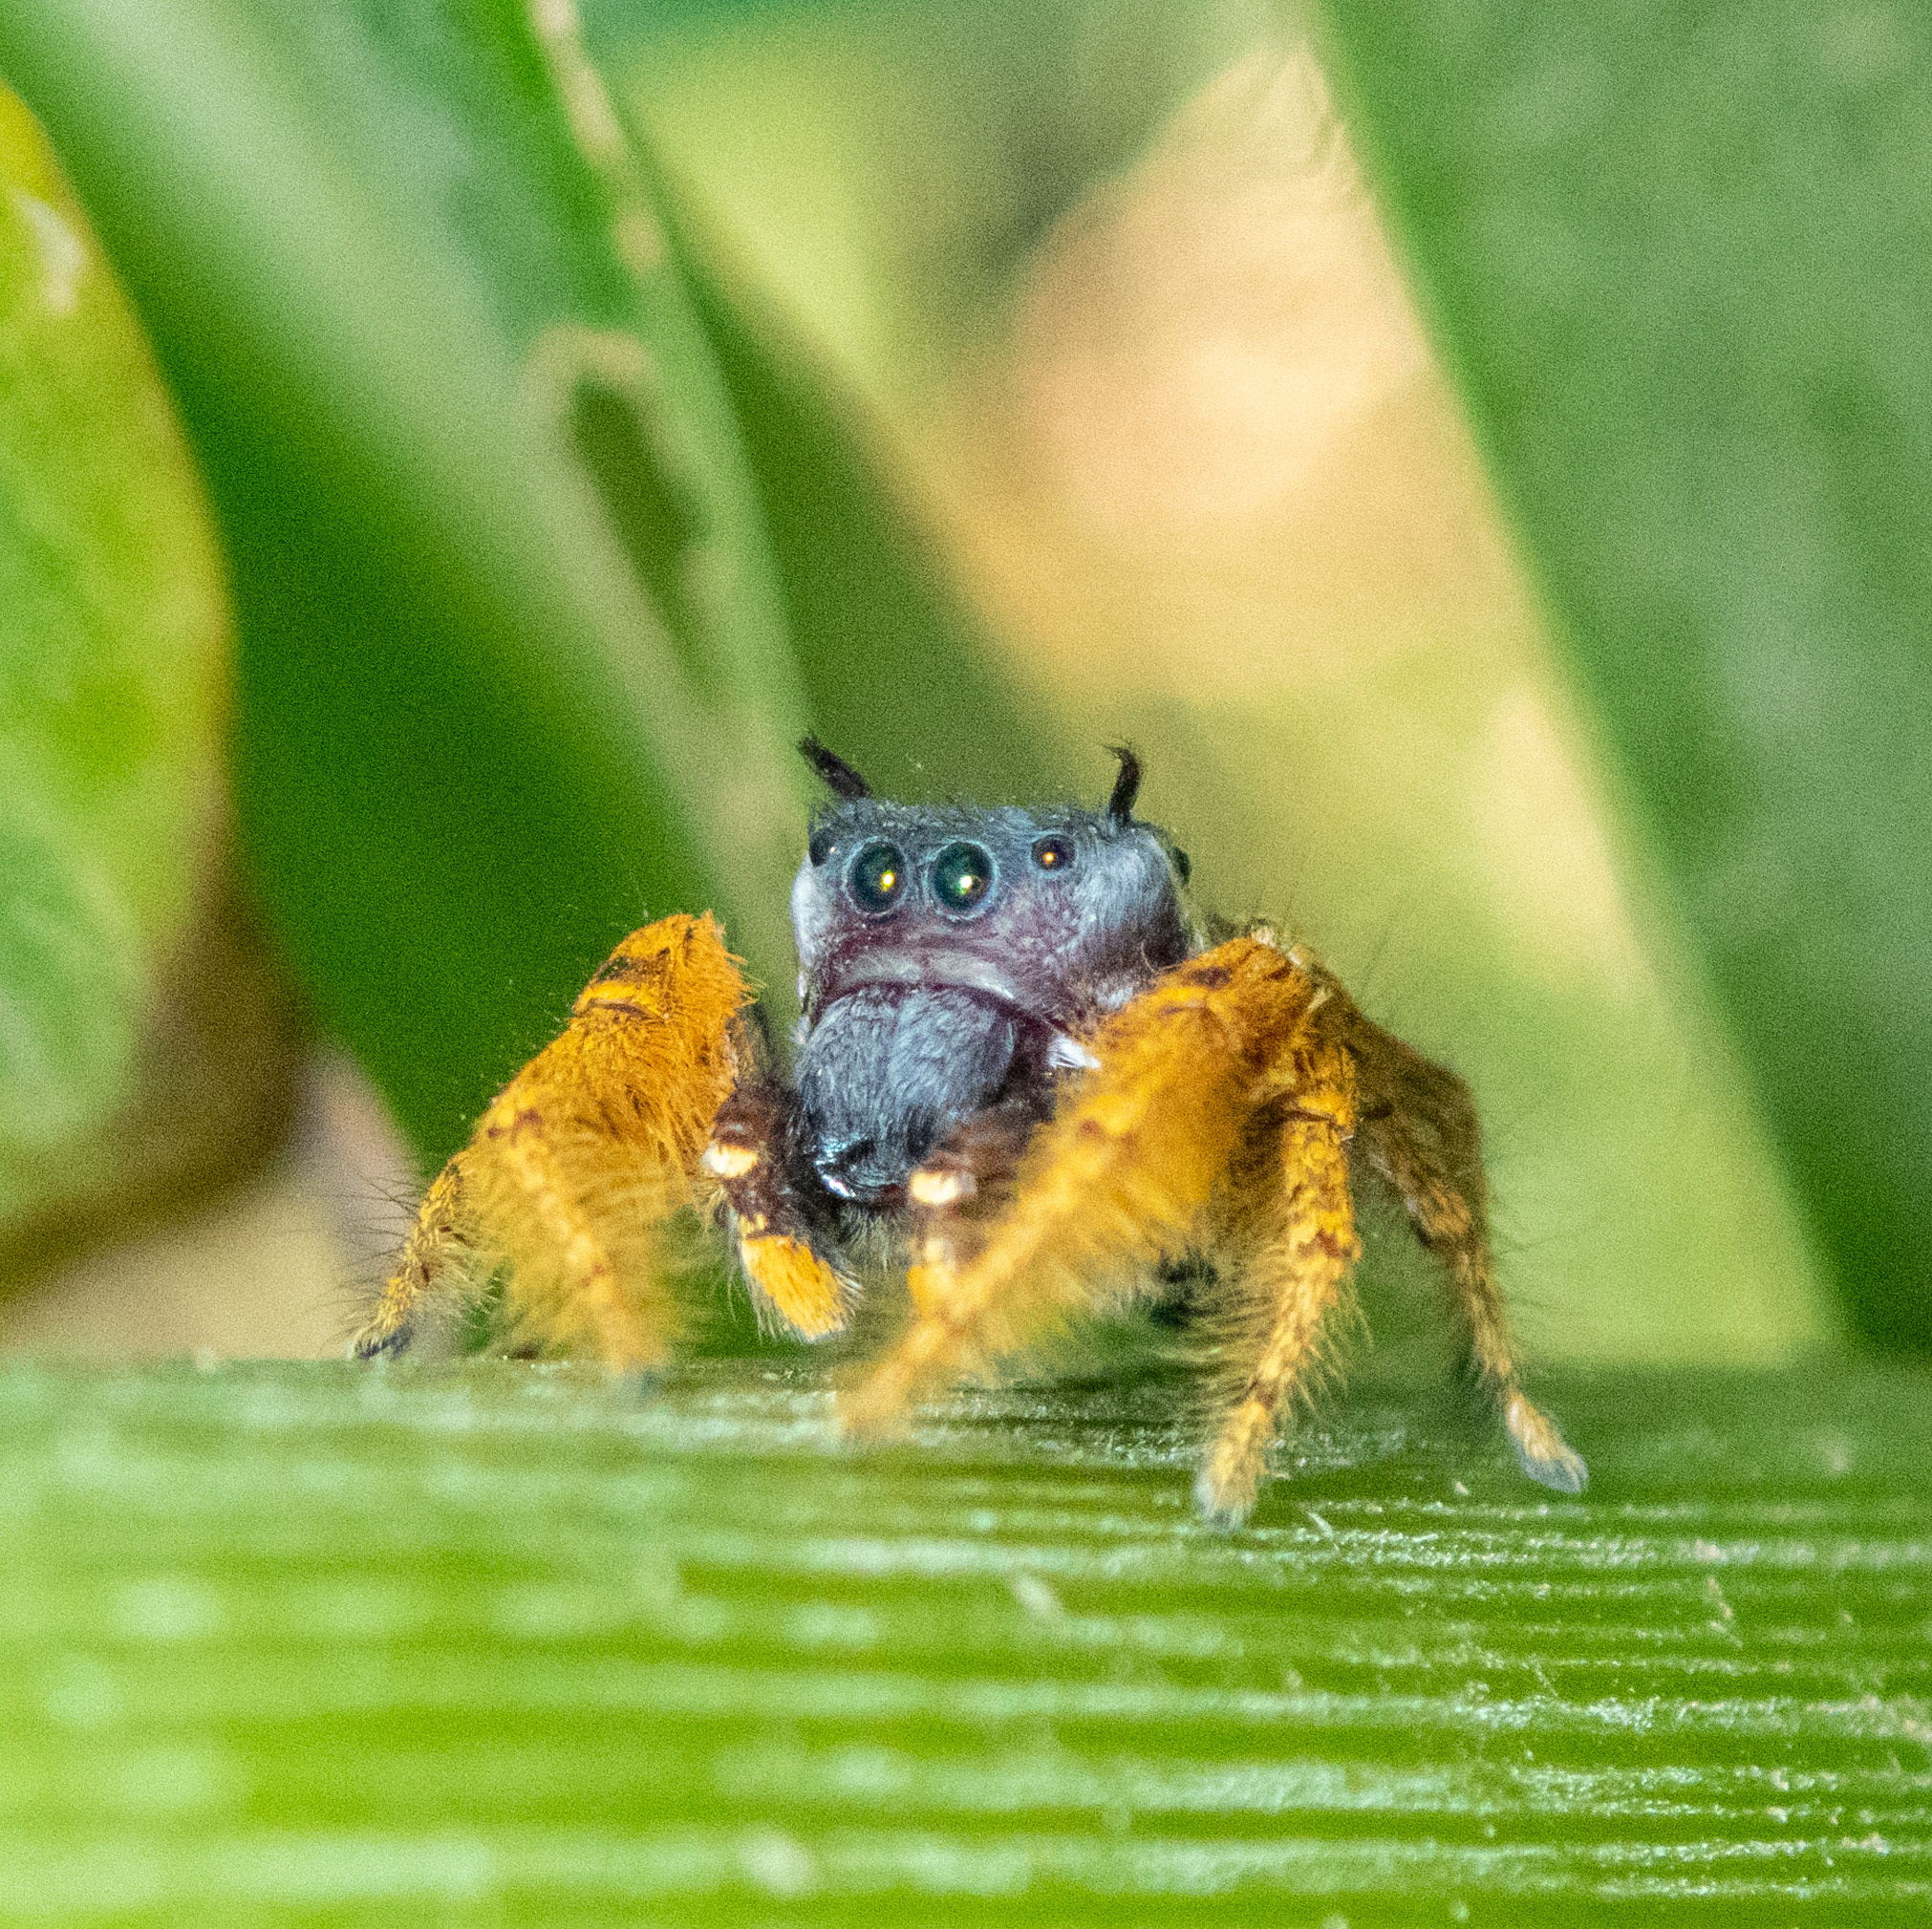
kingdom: Animalia
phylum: Arthropoda
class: Arachnida
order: Araneae
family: Salticidae
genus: Phidippus
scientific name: Phidippus arizonensis
